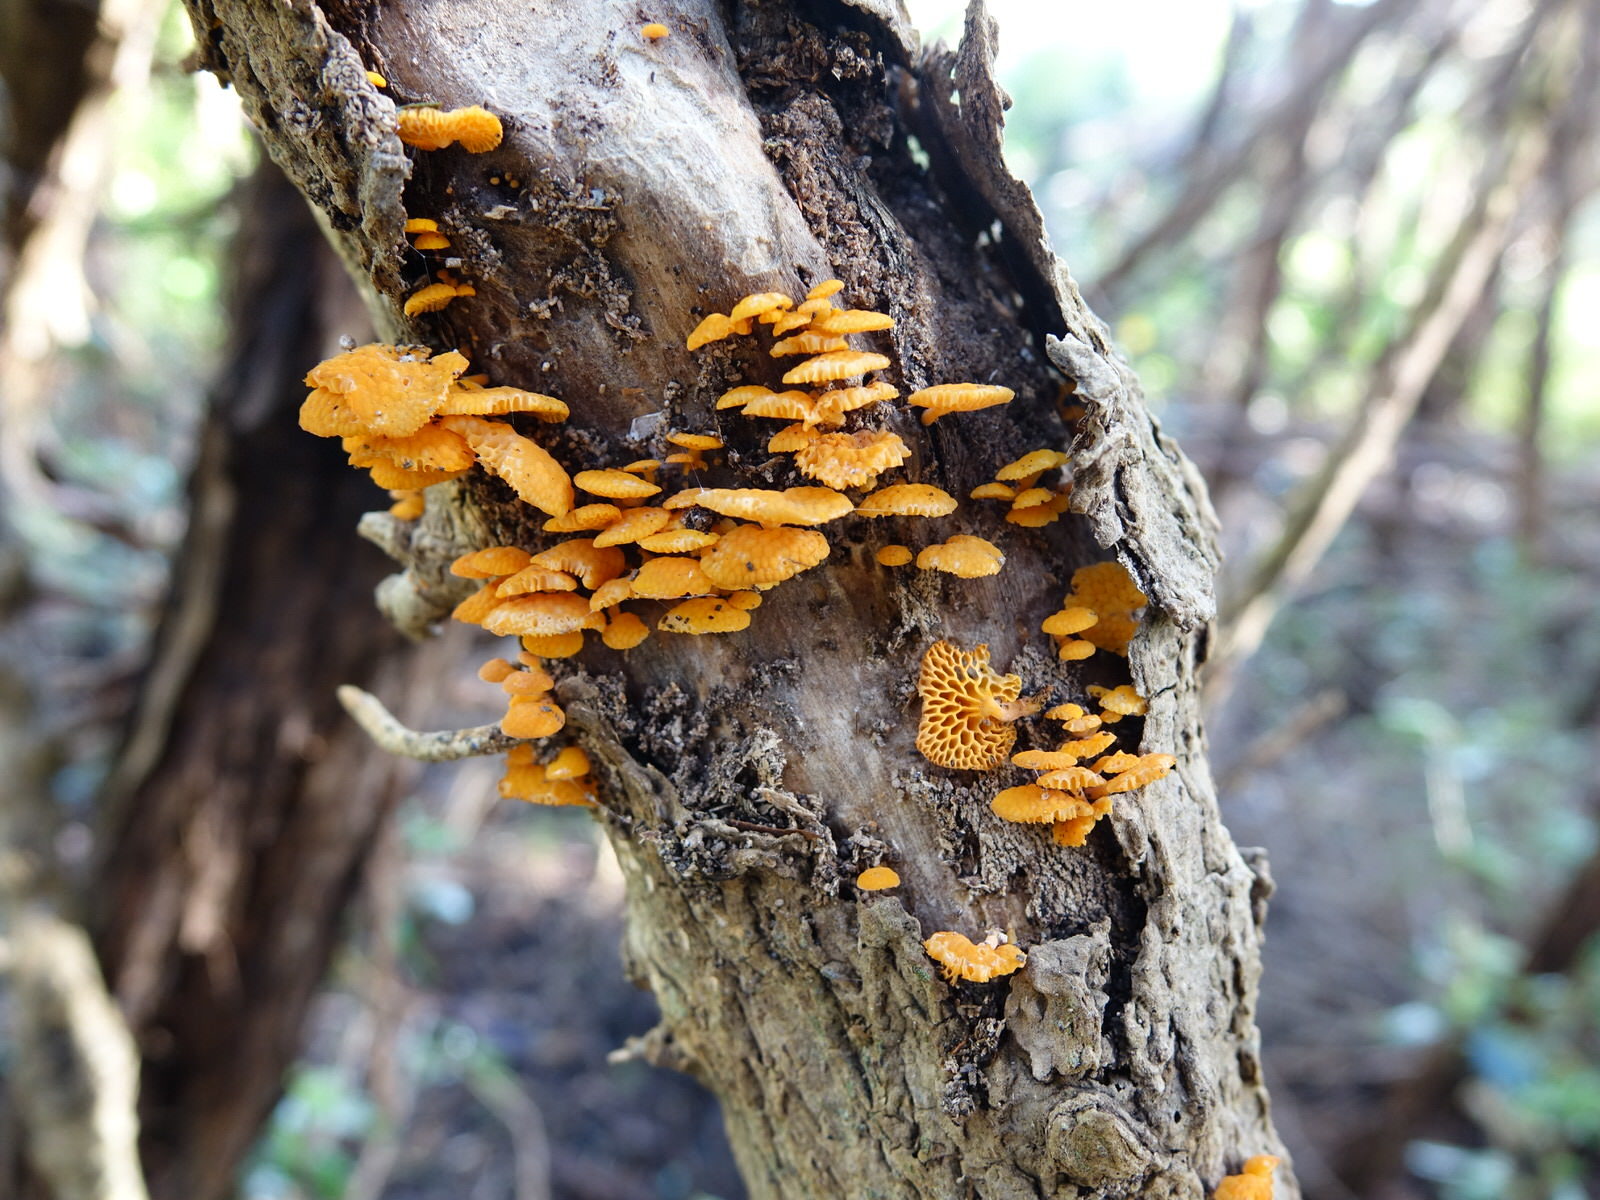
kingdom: Fungi
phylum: Basidiomycota
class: Agaricomycetes
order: Agaricales
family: Mycenaceae
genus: Favolaschia
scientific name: Favolaschia claudopus
